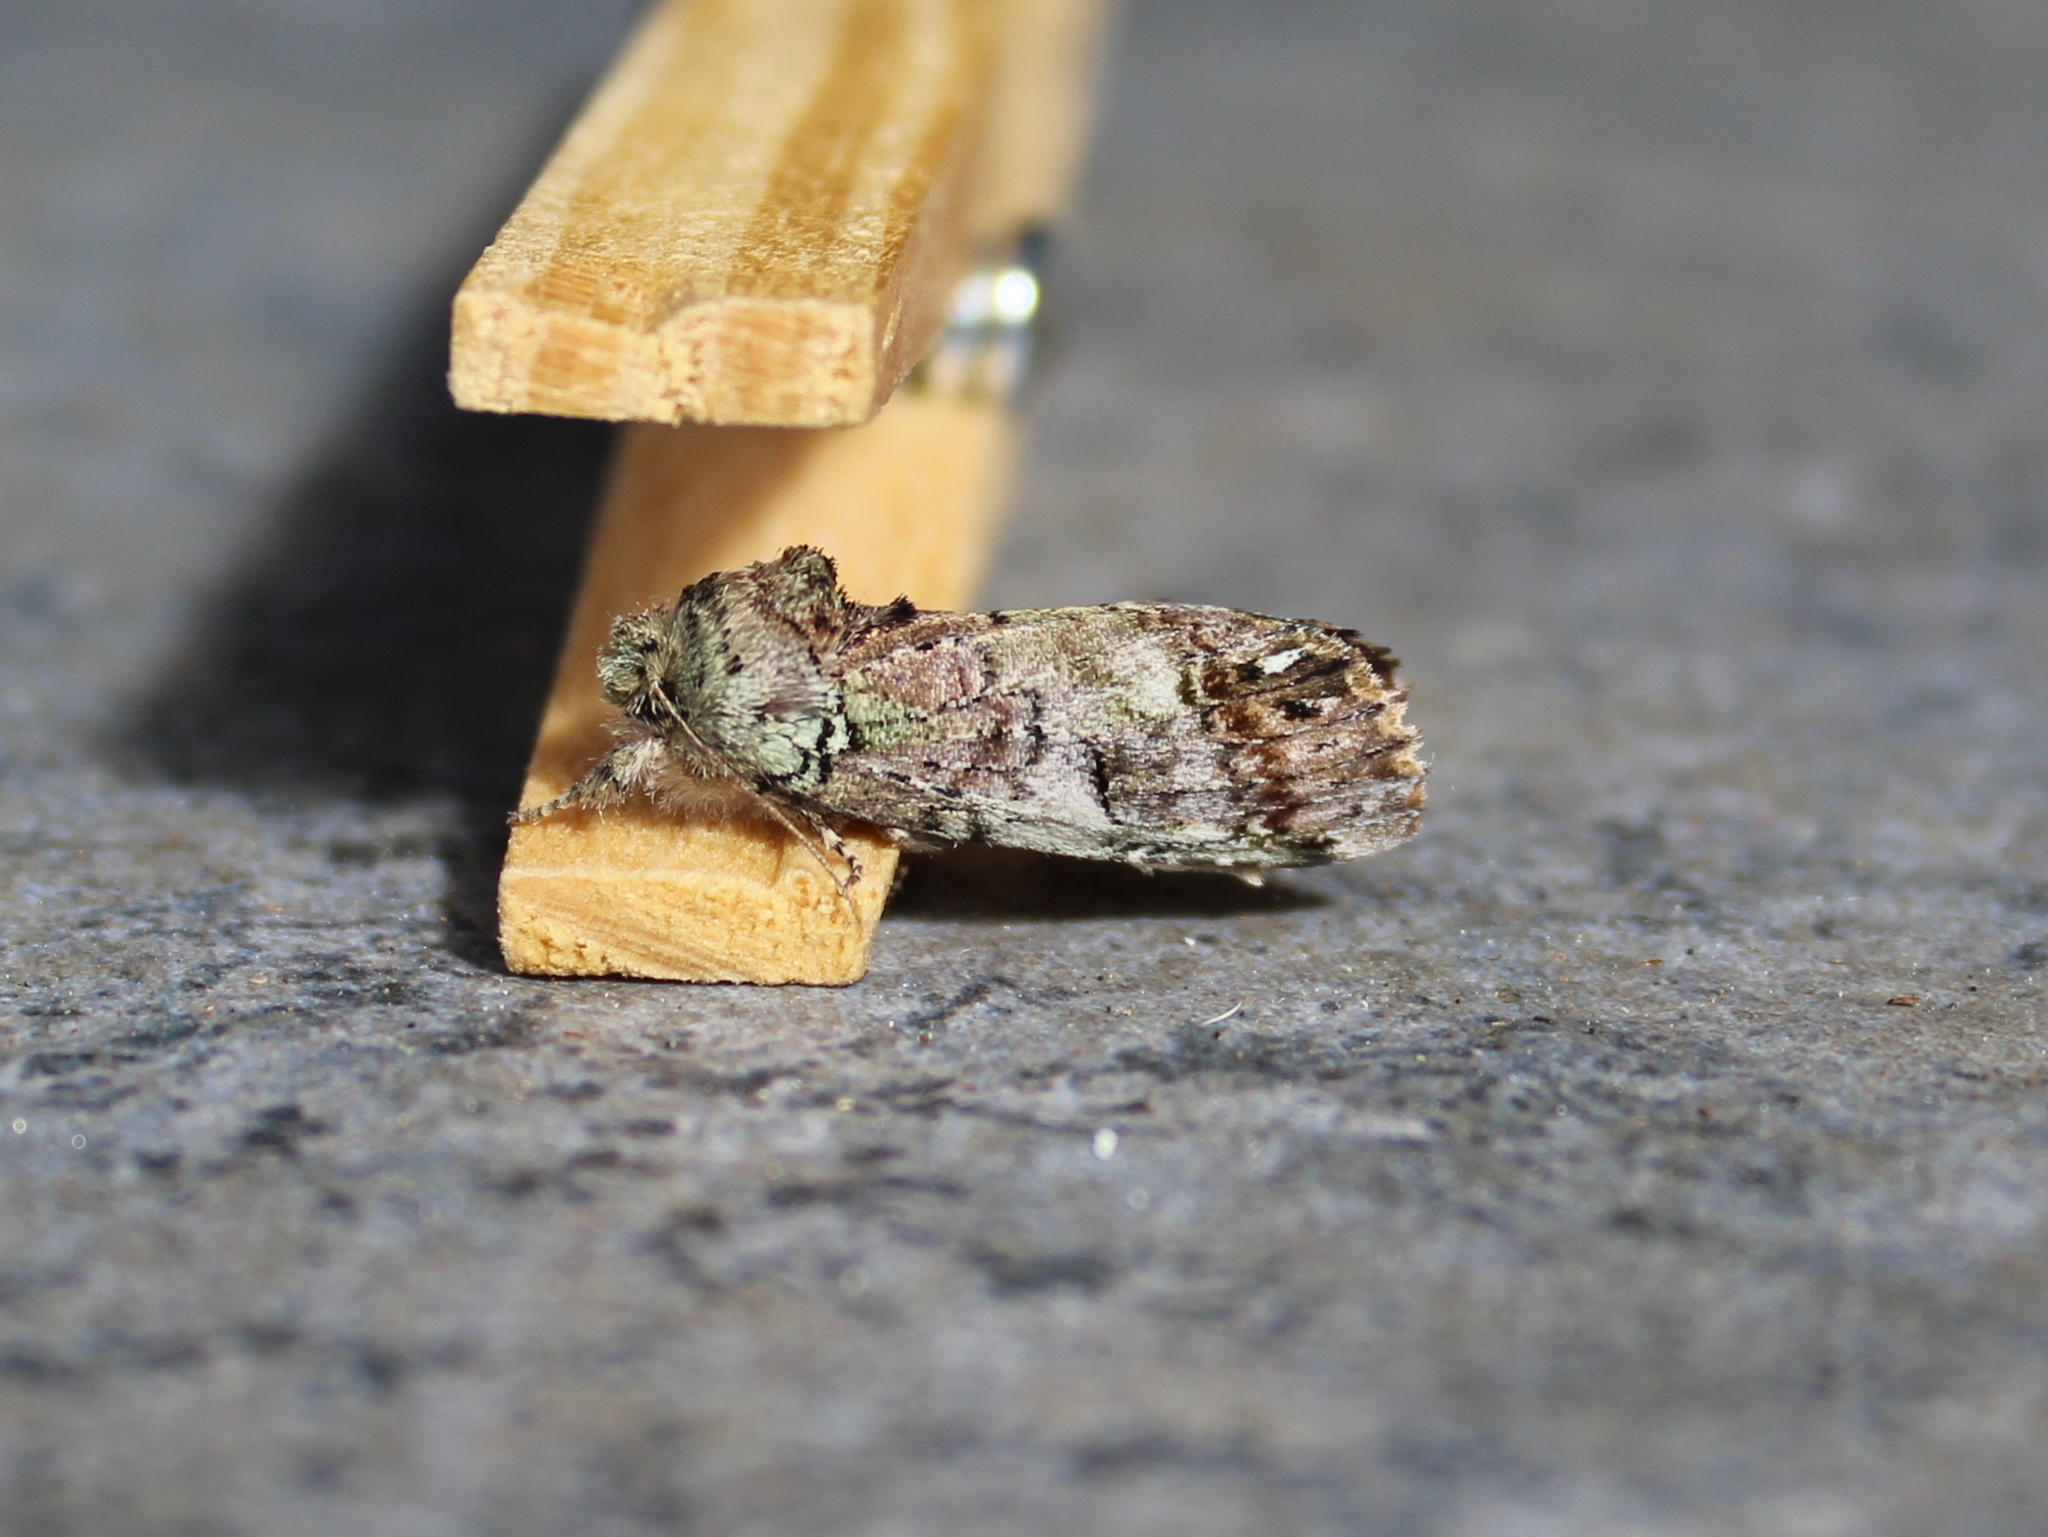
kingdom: Animalia
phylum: Arthropoda
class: Insecta
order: Lepidoptera
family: Notodontidae
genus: Schizura
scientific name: Schizura
